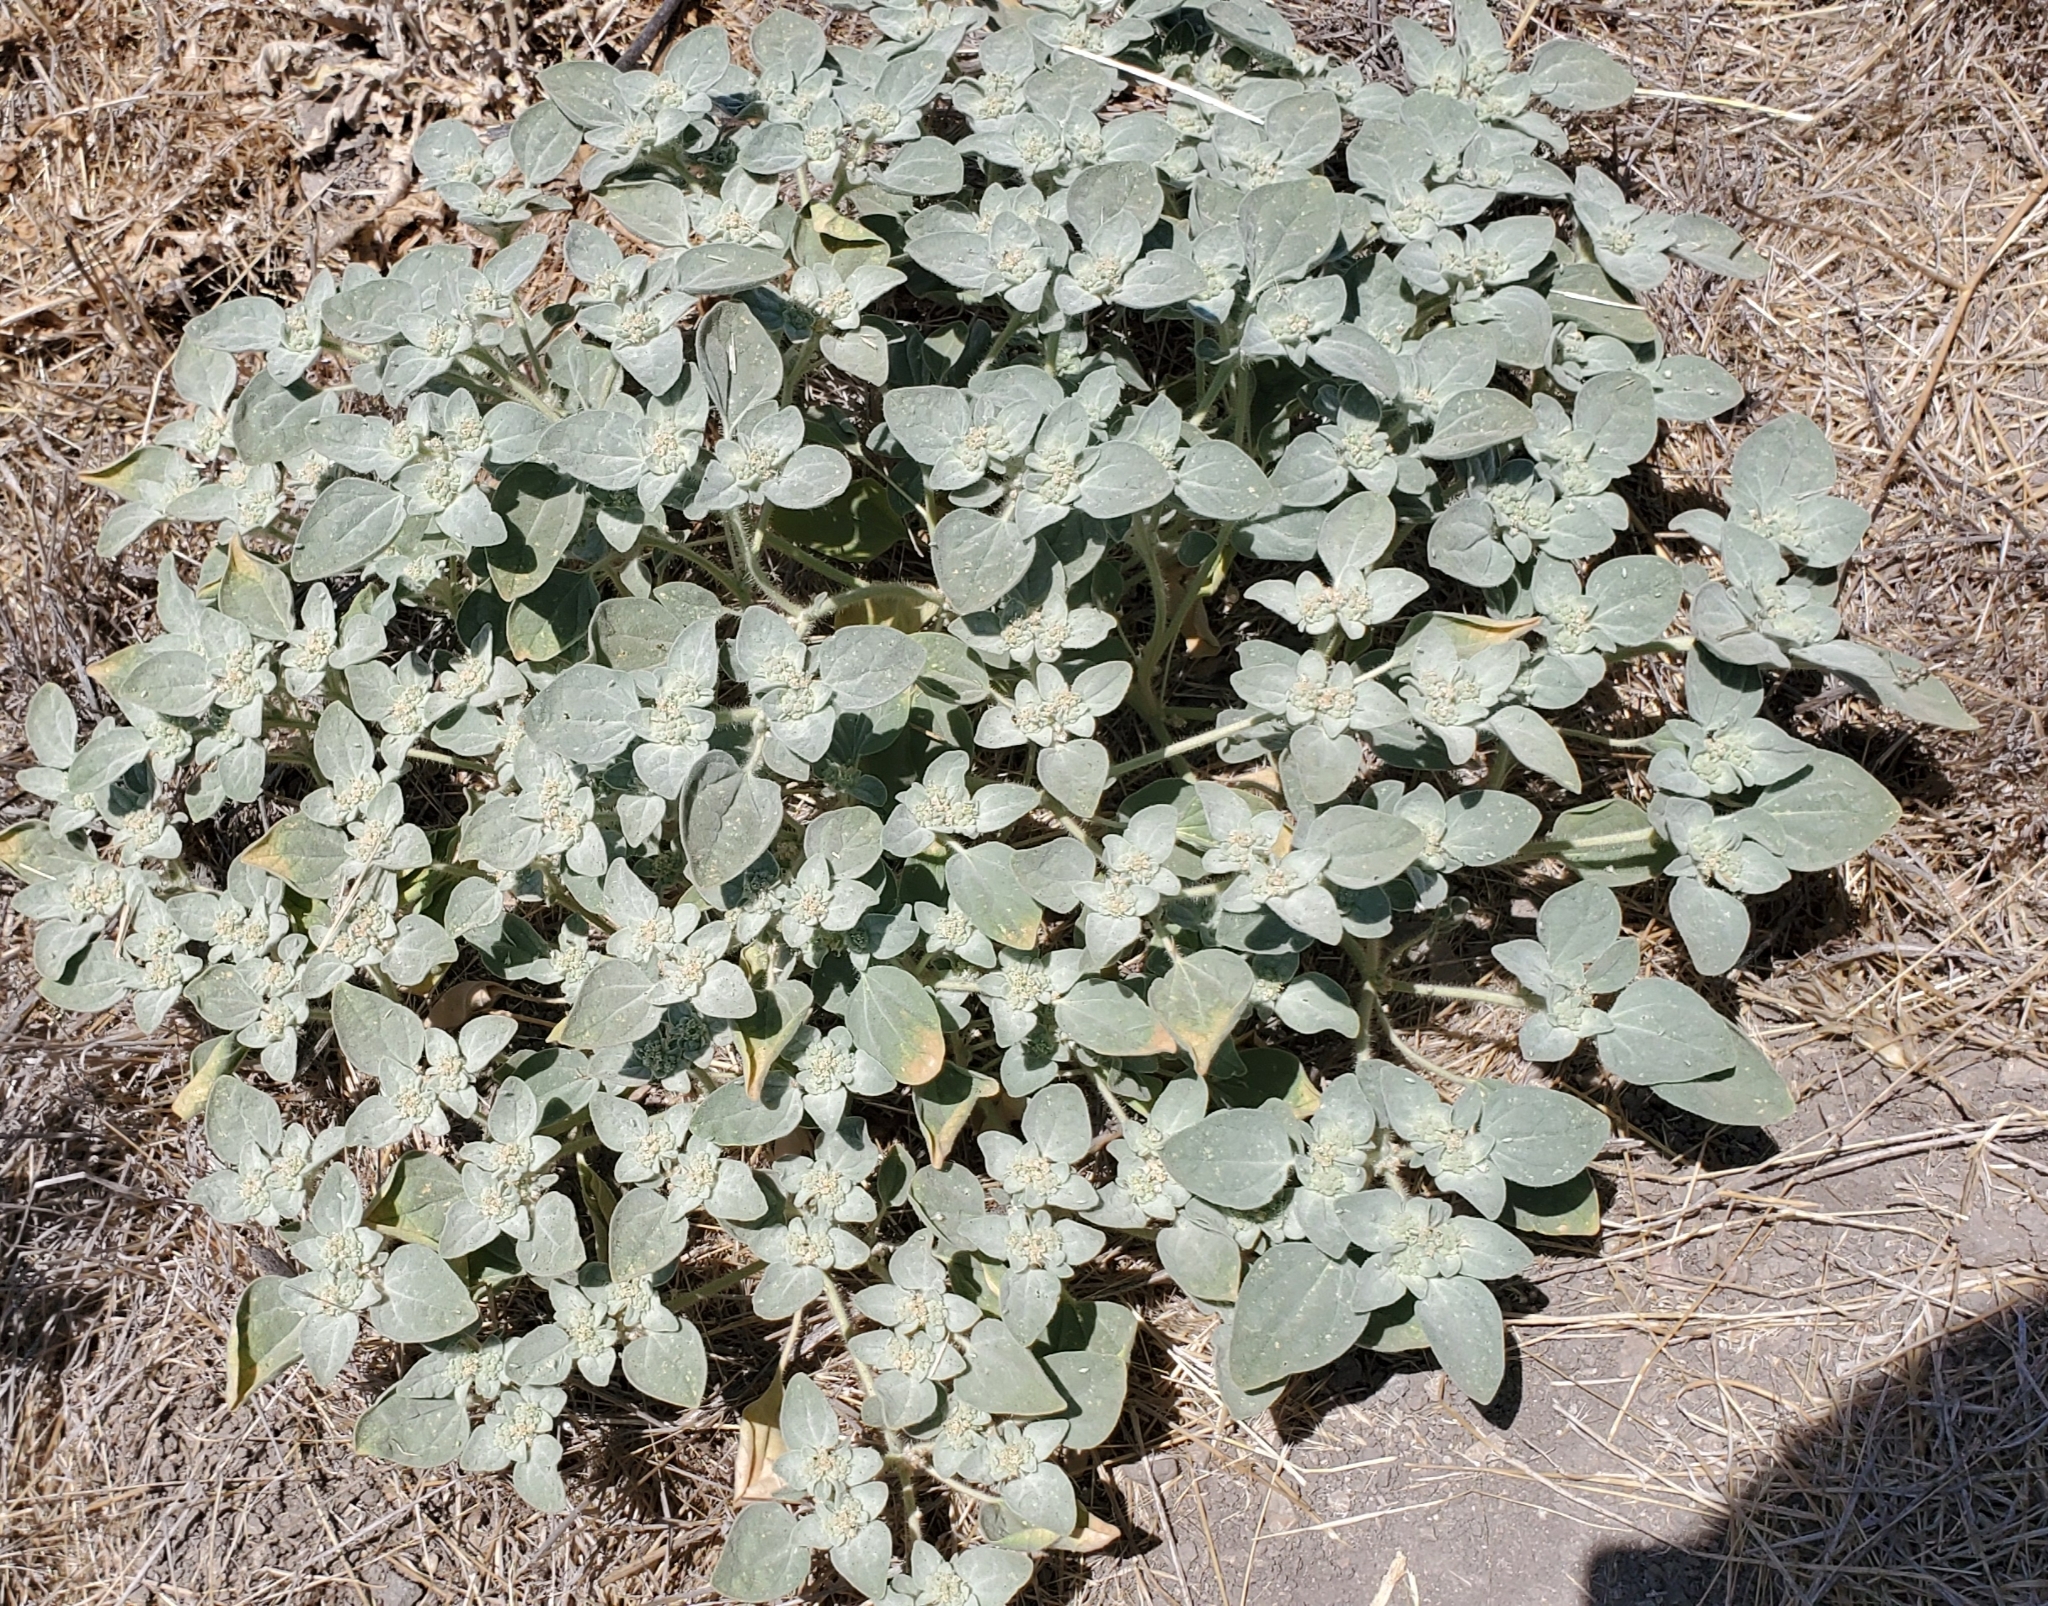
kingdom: Plantae
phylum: Tracheophyta
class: Magnoliopsida
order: Malpighiales
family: Euphorbiaceae
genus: Croton
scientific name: Croton setiger
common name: Dove weed
